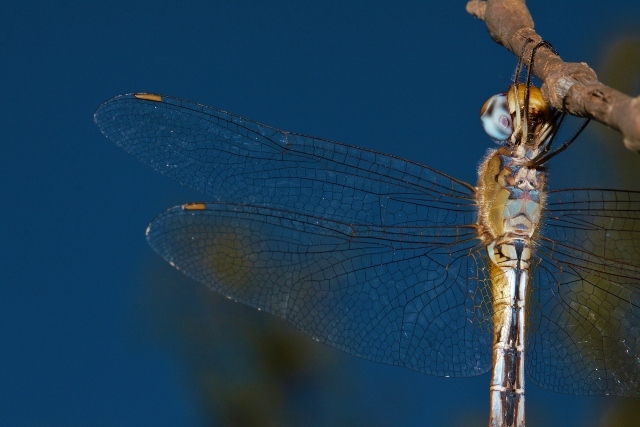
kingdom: Animalia
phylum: Arthropoda
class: Insecta
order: Odonata
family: Libellulidae
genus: Pantala
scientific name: Pantala flavescens
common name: Wandering glider
